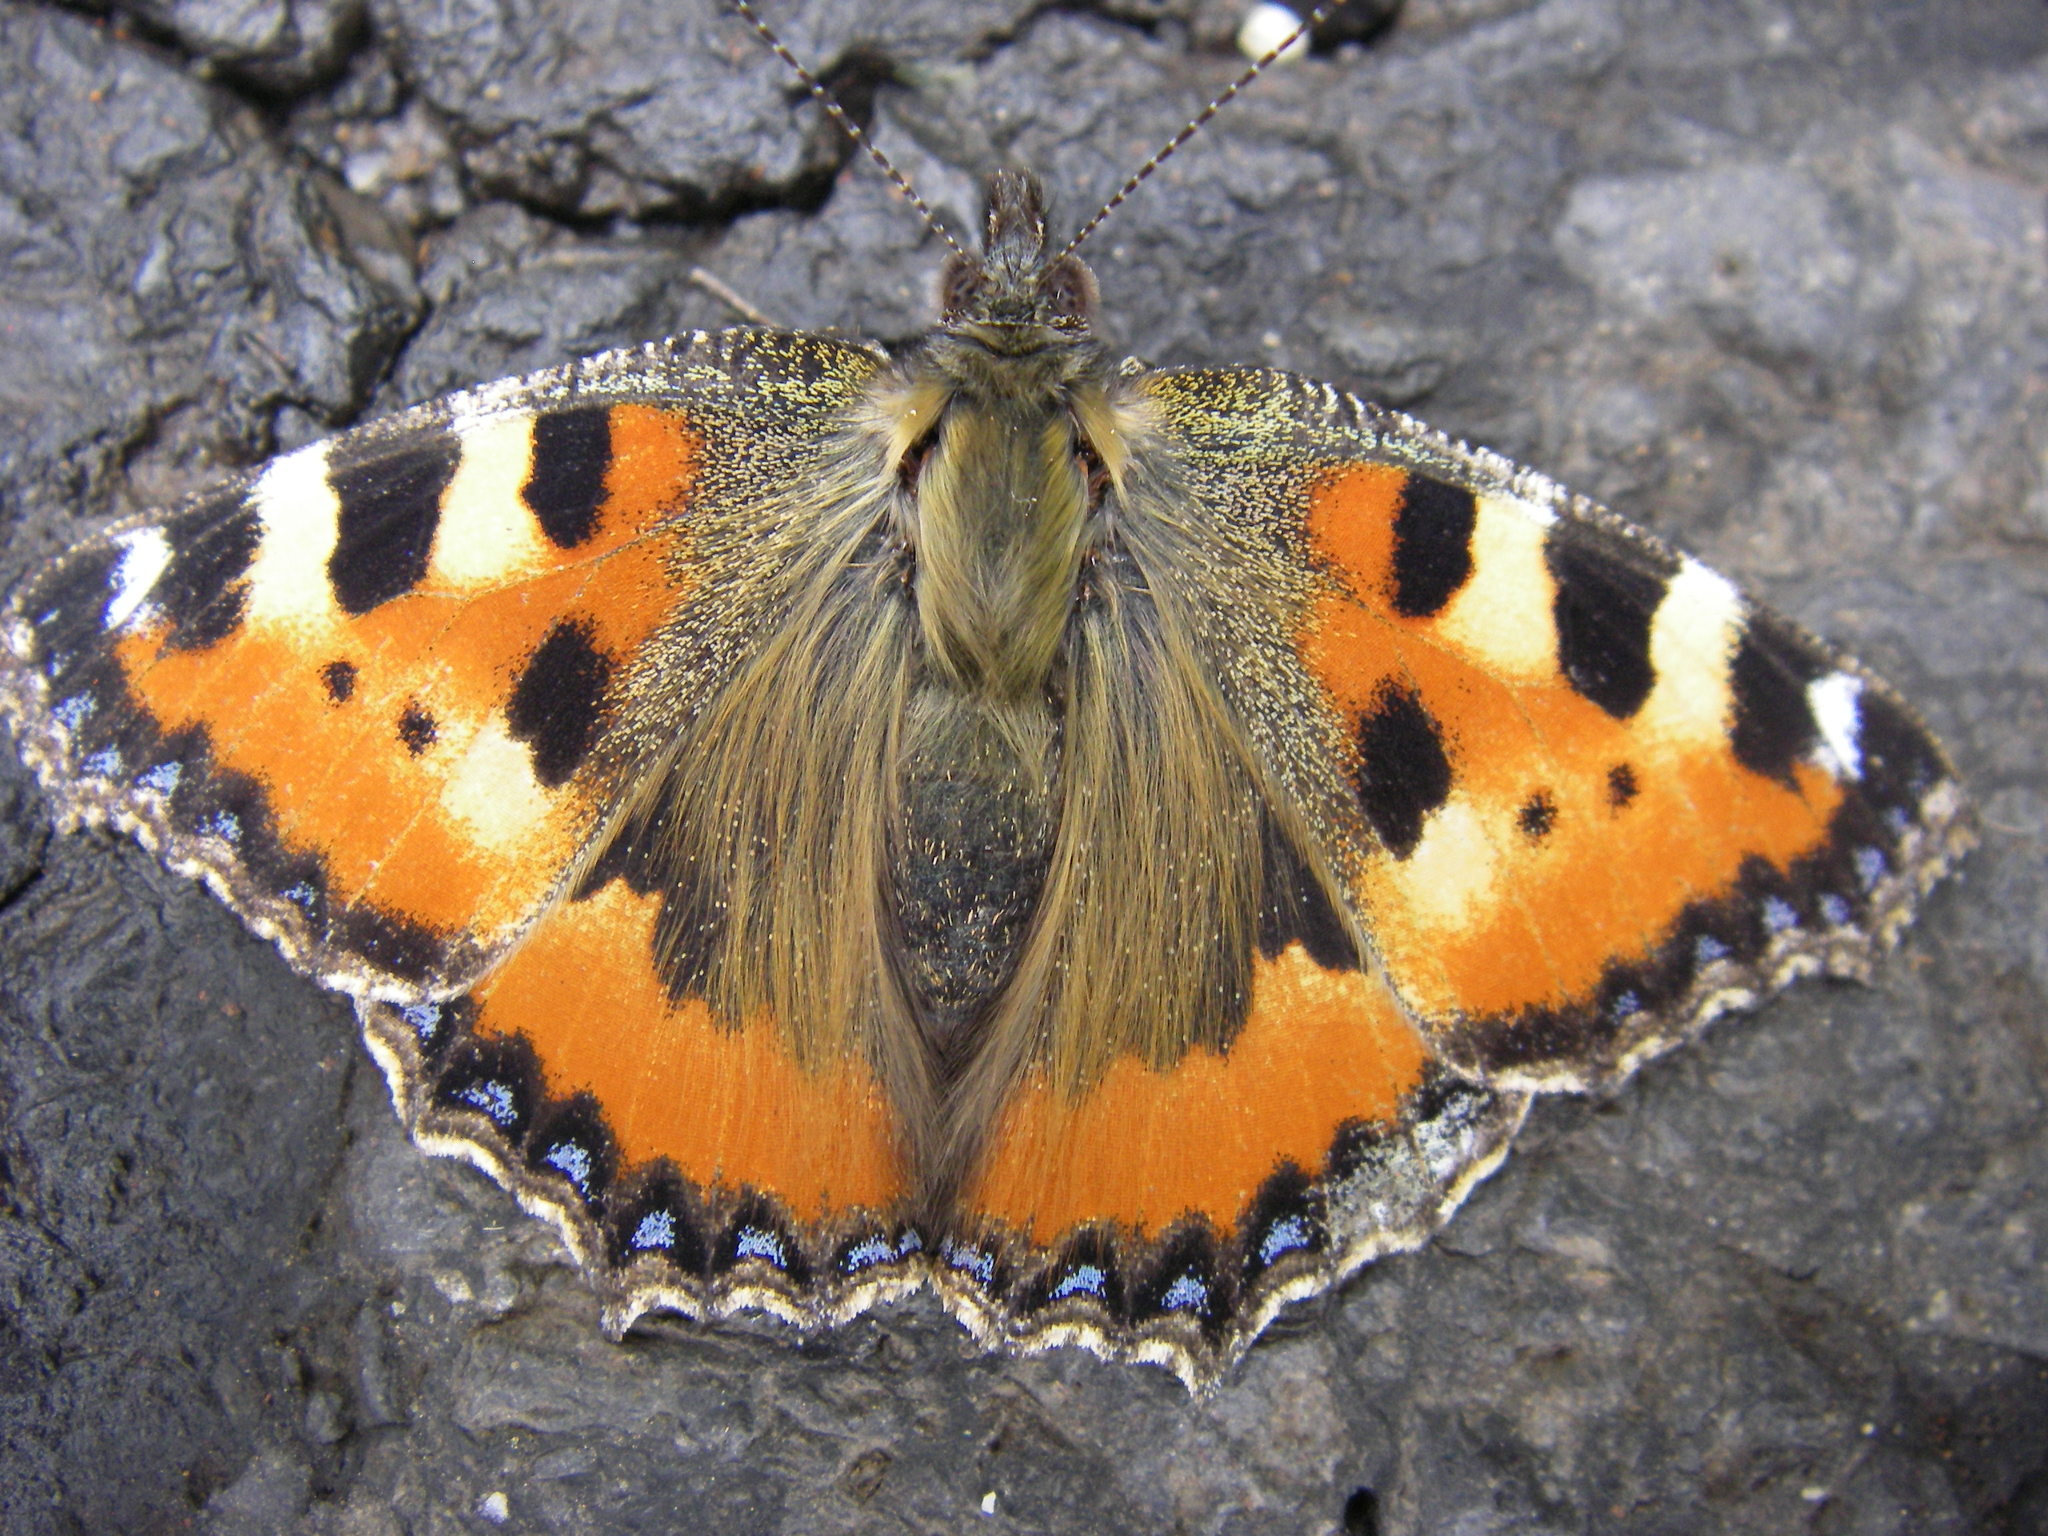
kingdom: Animalia
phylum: Arthropoda
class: Insecta
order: Lepidoptera
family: Nymphalidae
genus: Aglais
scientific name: Aglais urticae
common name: Small tortoiseshell
